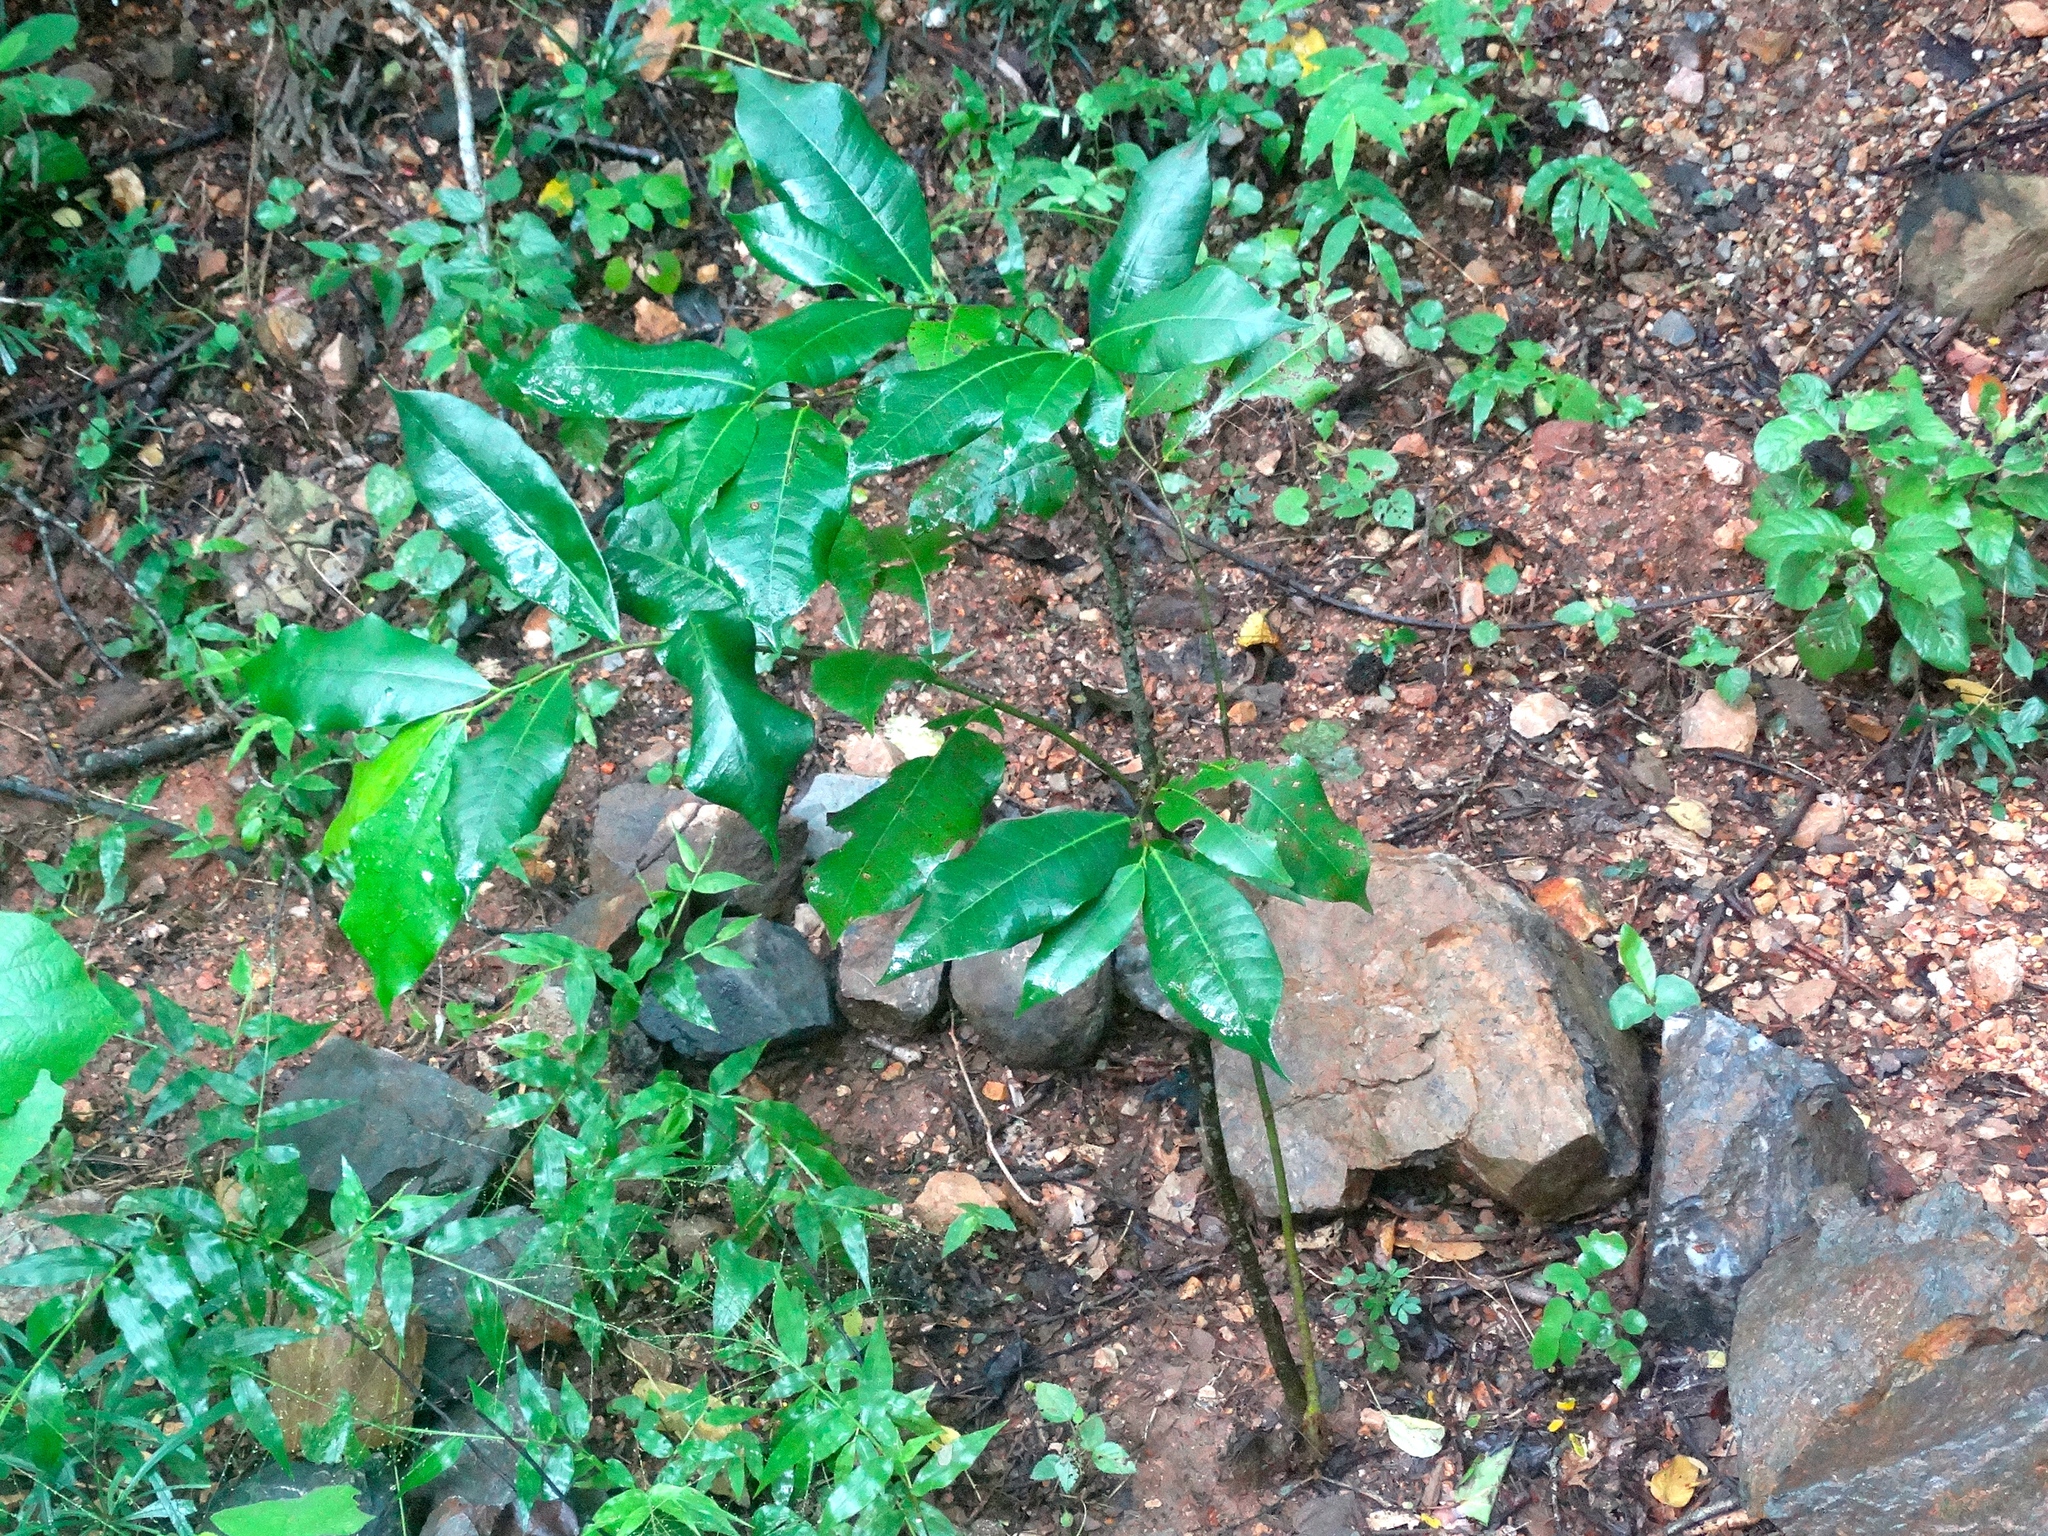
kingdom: Plantae
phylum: Tracheophyta
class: Magnoliopsida
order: Rosales
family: Moraceae
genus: Brosimum
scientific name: Brosimum alicastrum
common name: Breadnut
